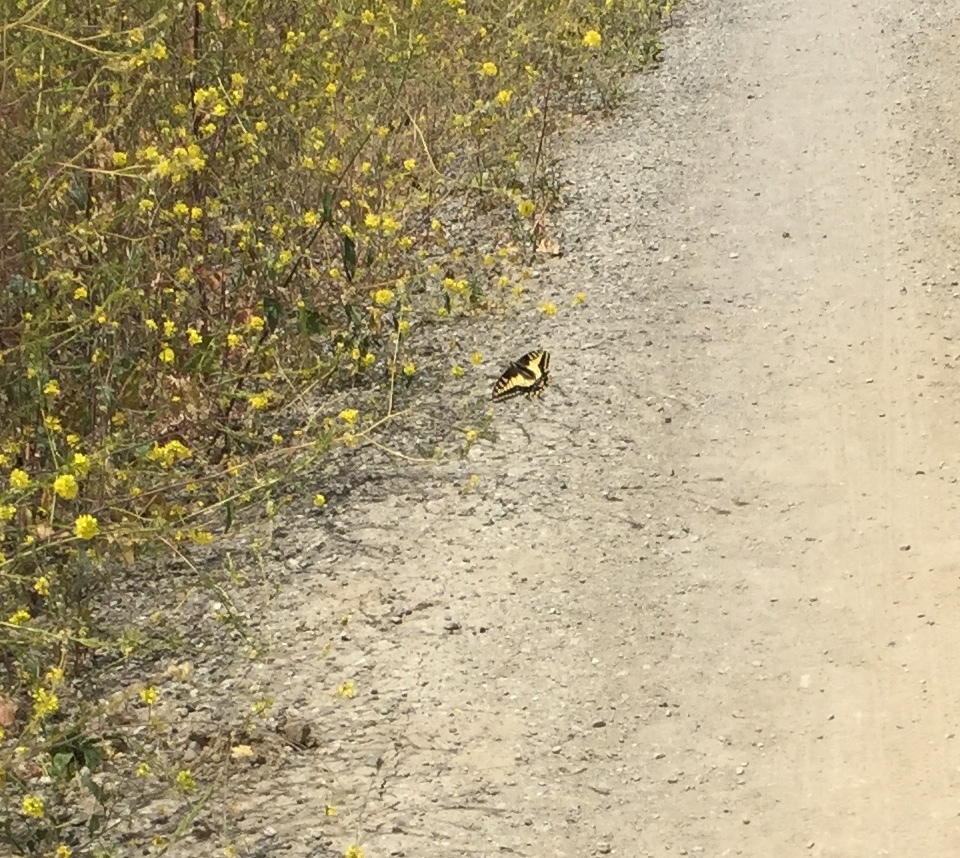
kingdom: Animalia
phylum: Arthropoda
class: Insecta
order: Lepidoptera
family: Papilionidae
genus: Papilio
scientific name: Papilio zelicaon
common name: Anise swallowtail
